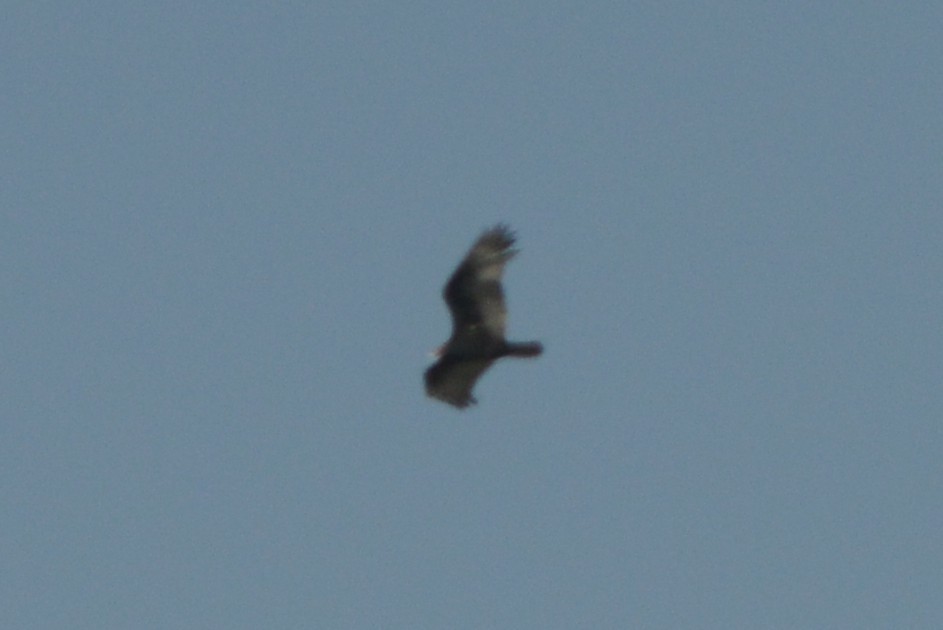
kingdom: Animalia
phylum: Chordata
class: Aves
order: Accipitriformes
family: Cathartidae
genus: Cathartes
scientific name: Cathartes aura
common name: Turkey vulture
